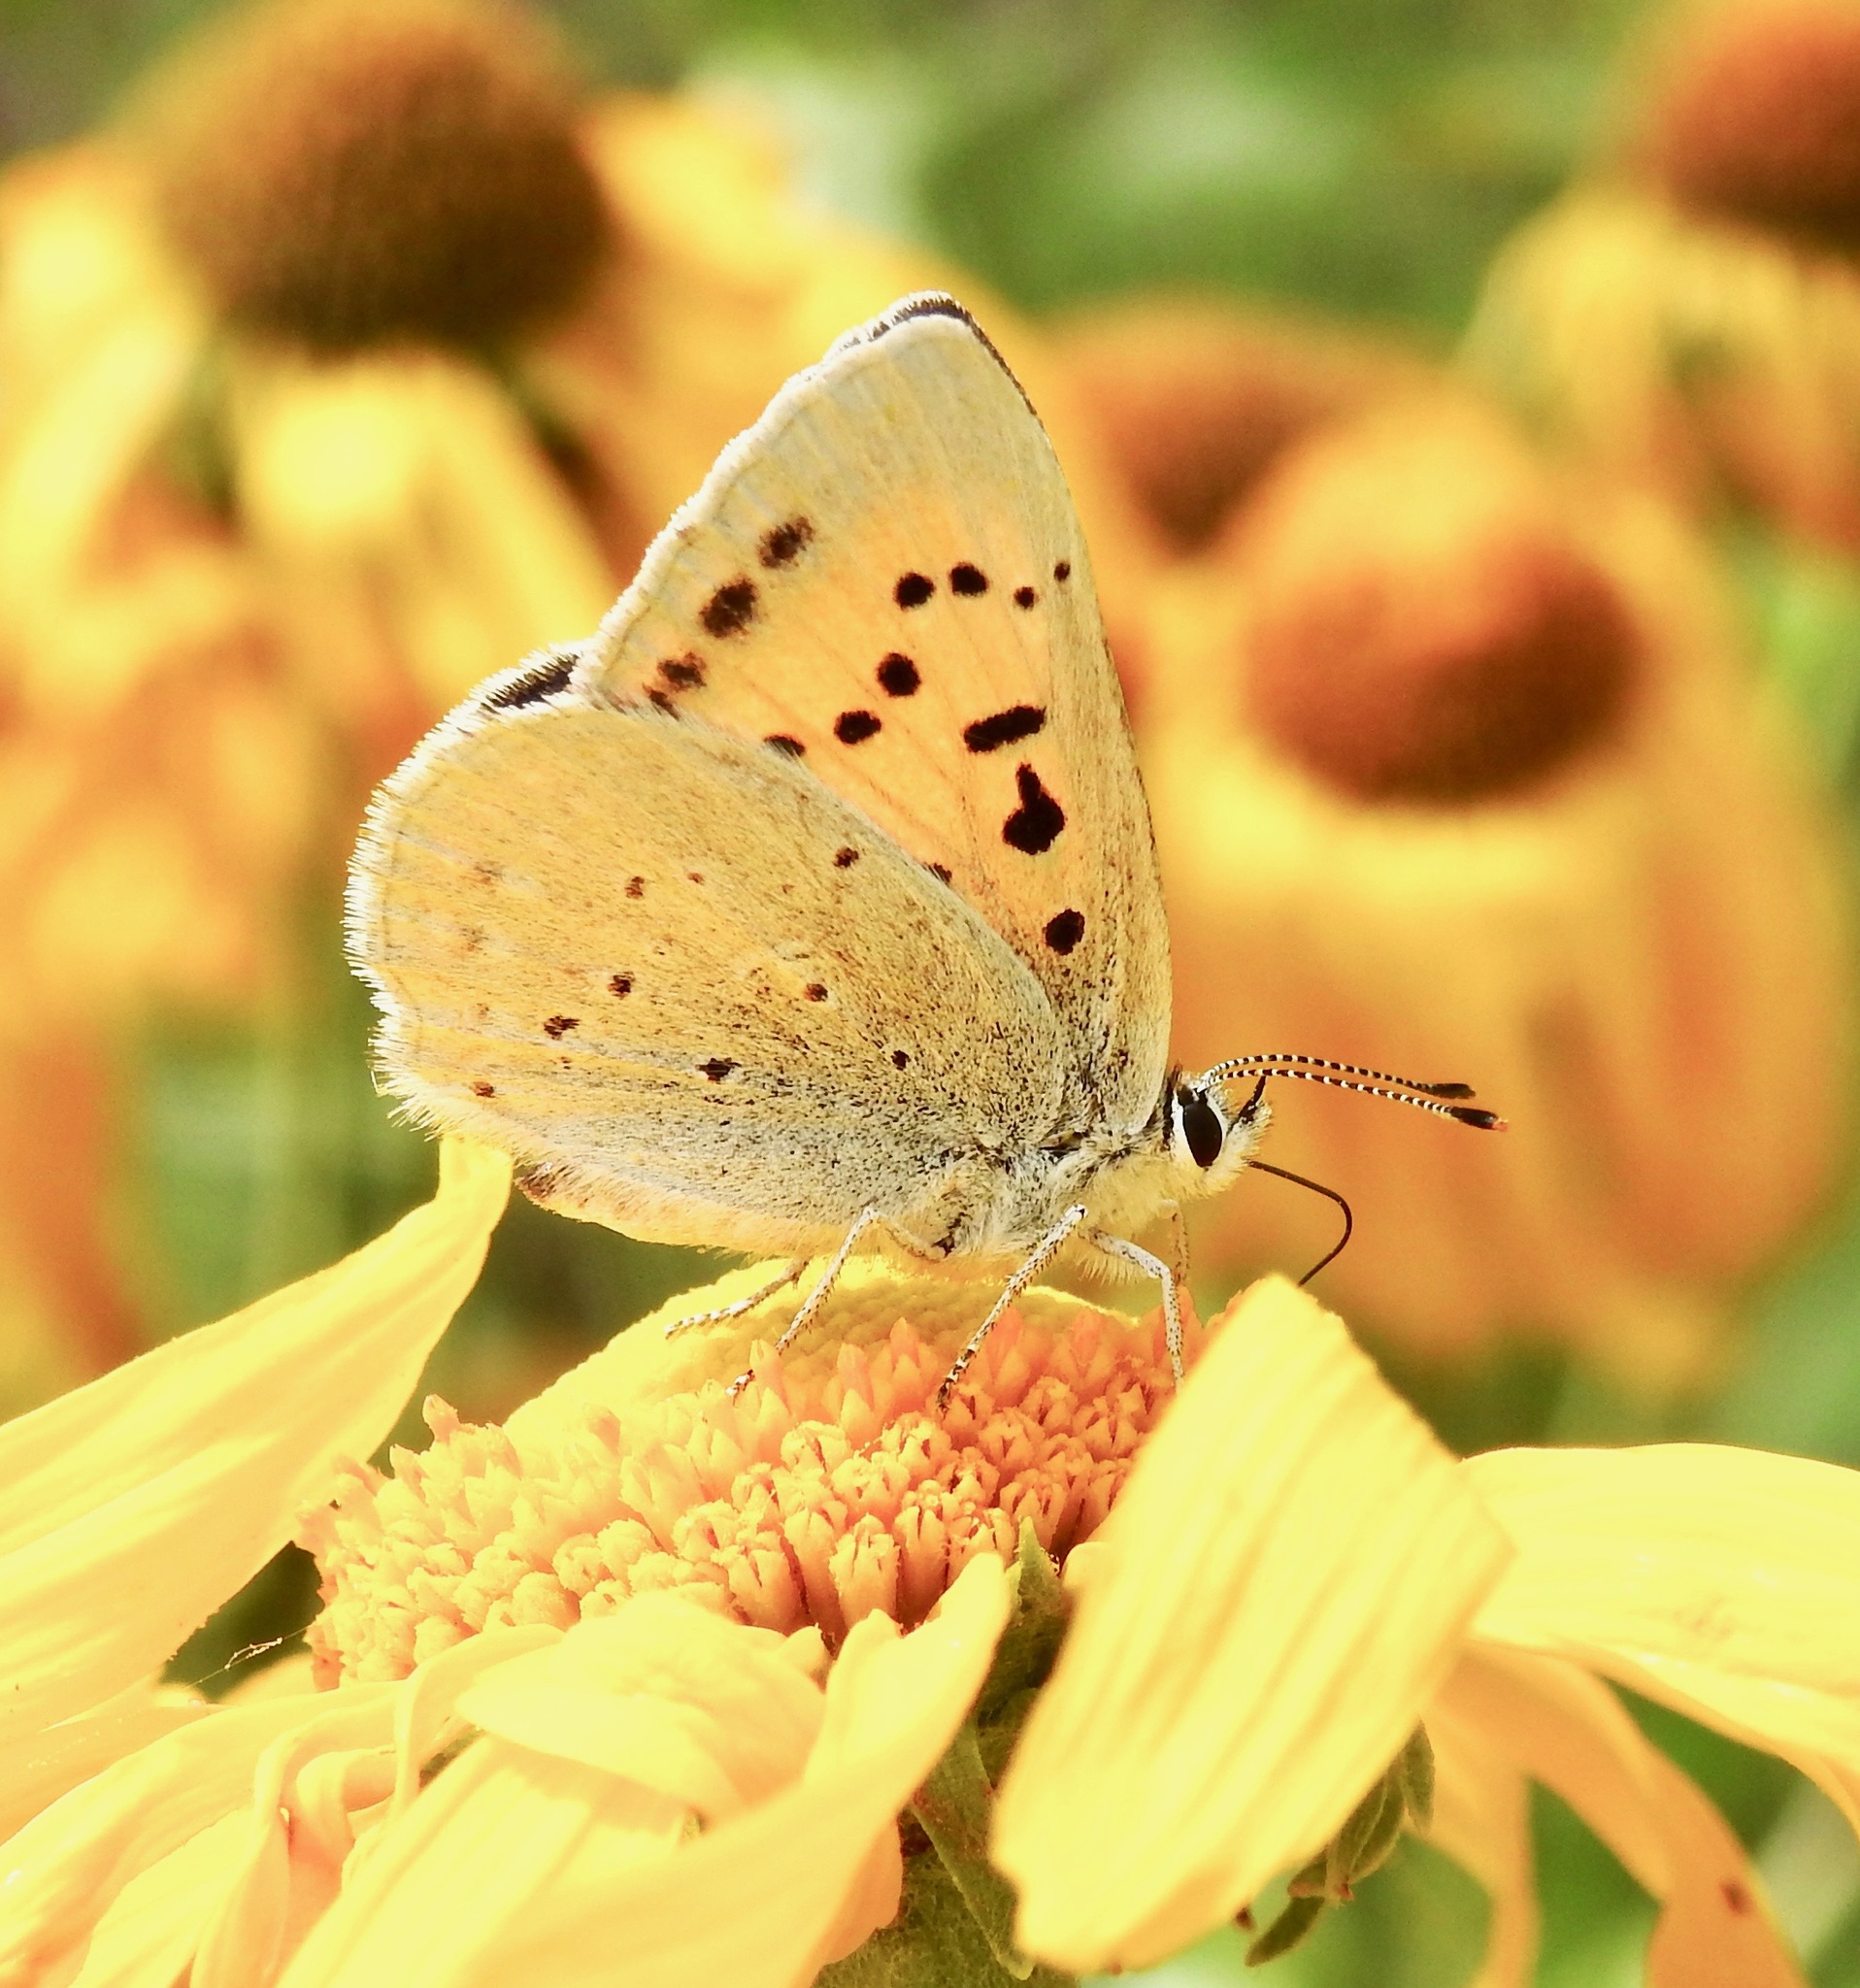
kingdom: Animalia
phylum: Arthropoda
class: Insecta
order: Lepidoptera
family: Lycaenidae
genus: Tharsalea
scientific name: Tharsalea rubidus
